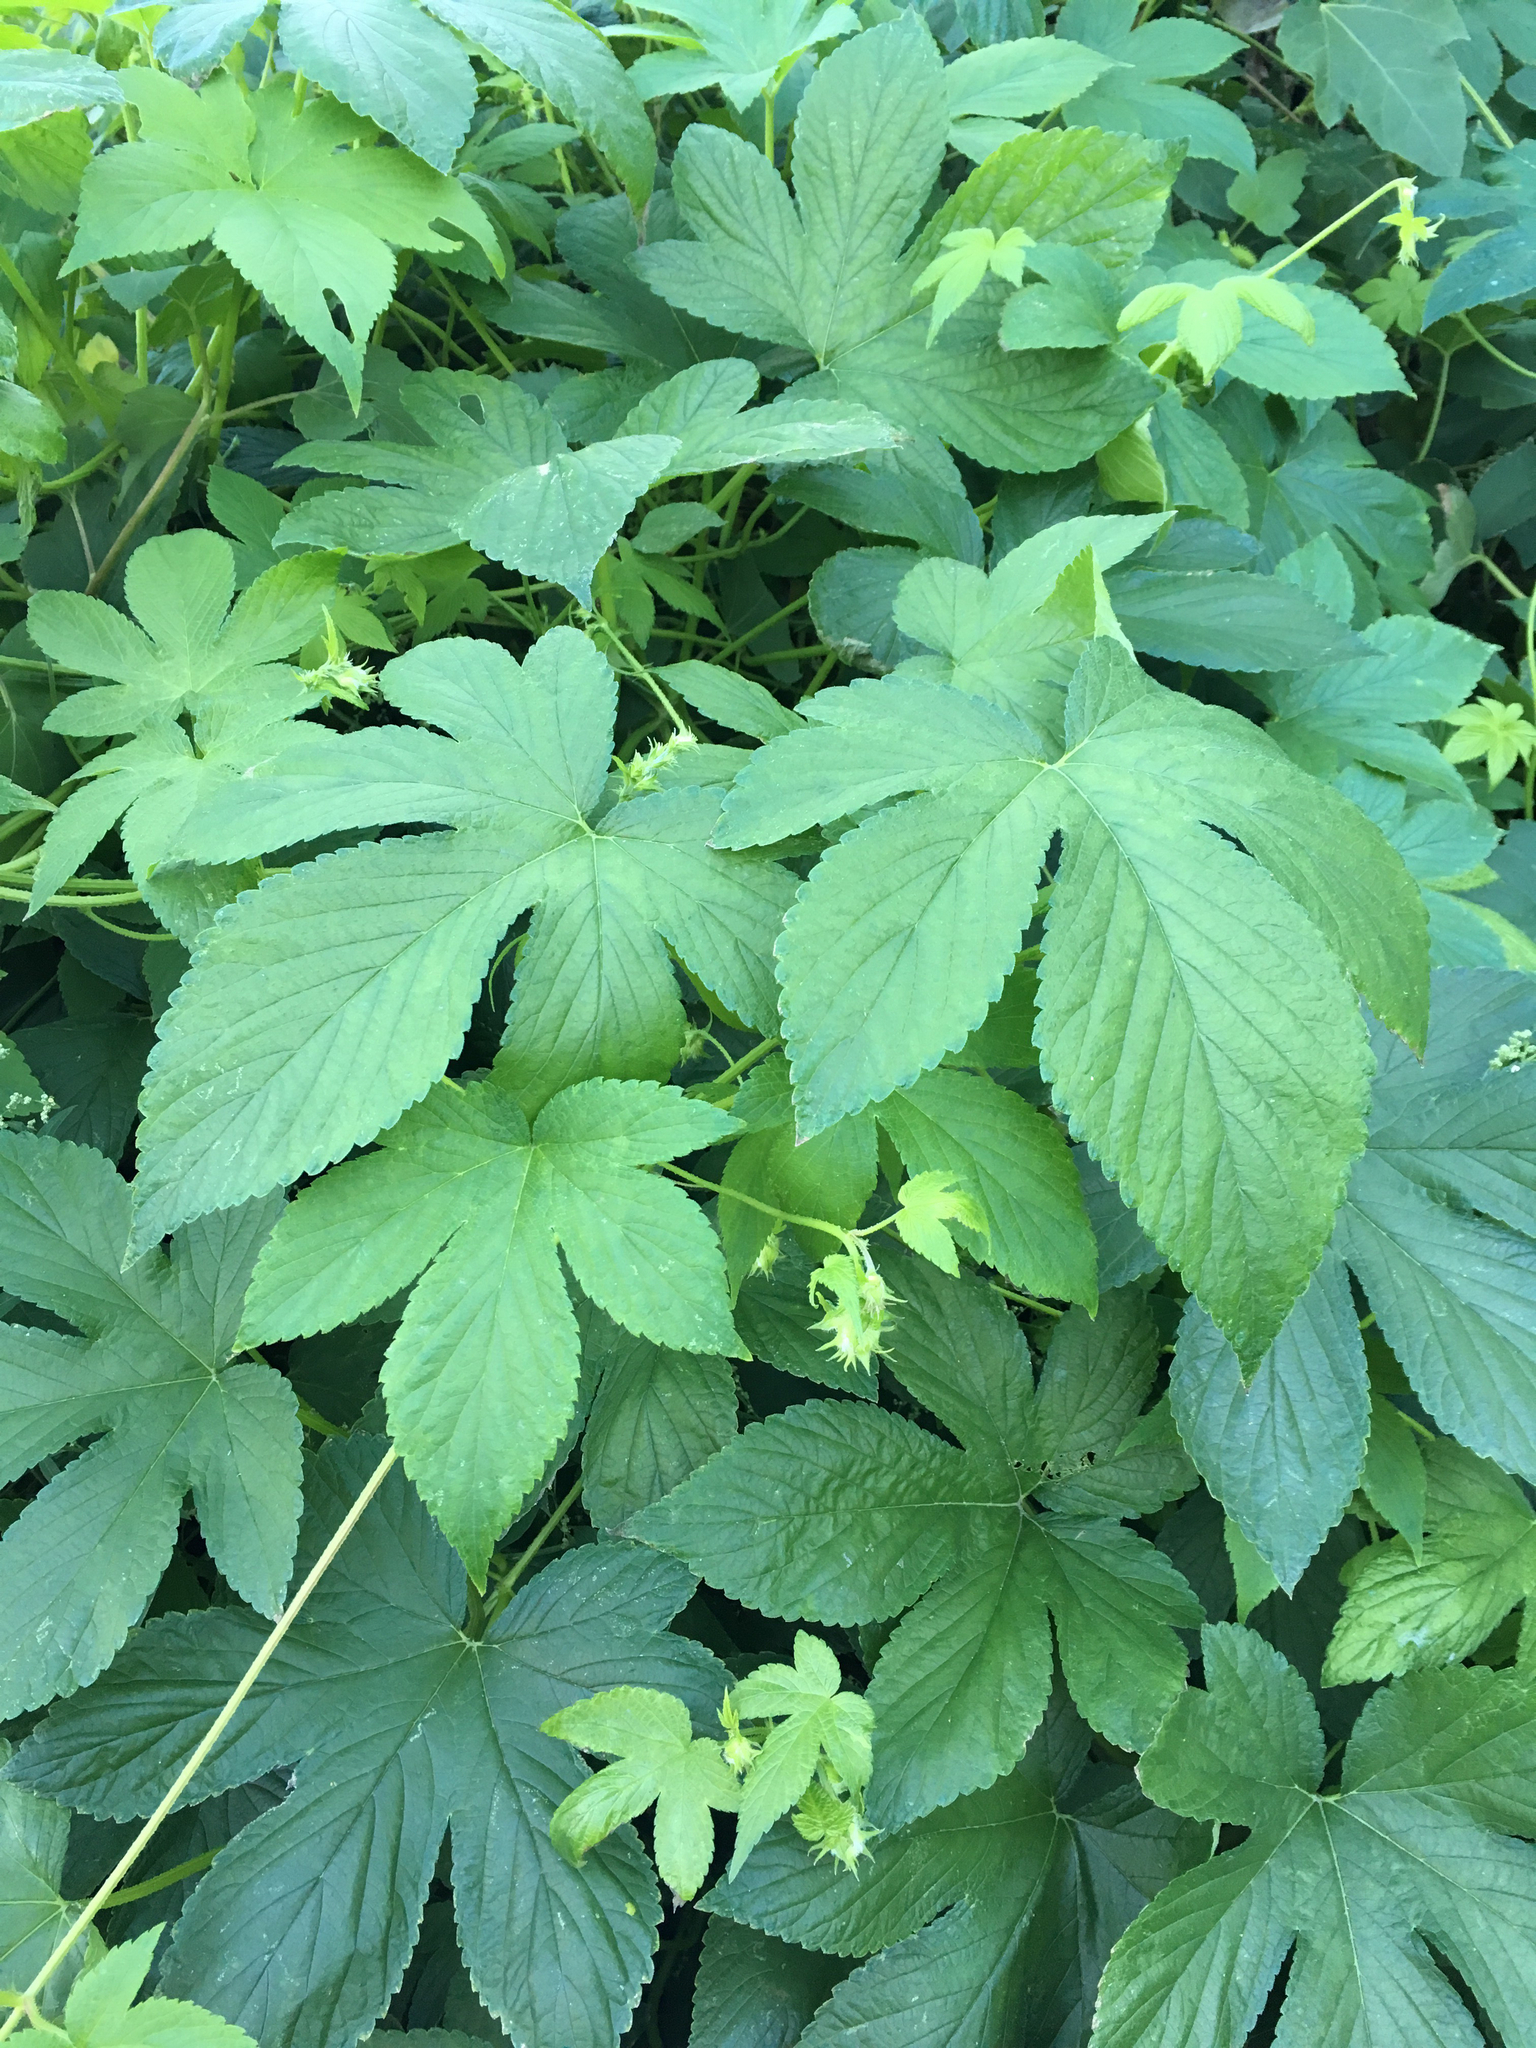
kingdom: Plantae
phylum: Tracheophyta
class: Magnoliopsida
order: Rosales
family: Cannabaceae
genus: Humulus
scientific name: Humulus scandens
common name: Japanese hop
